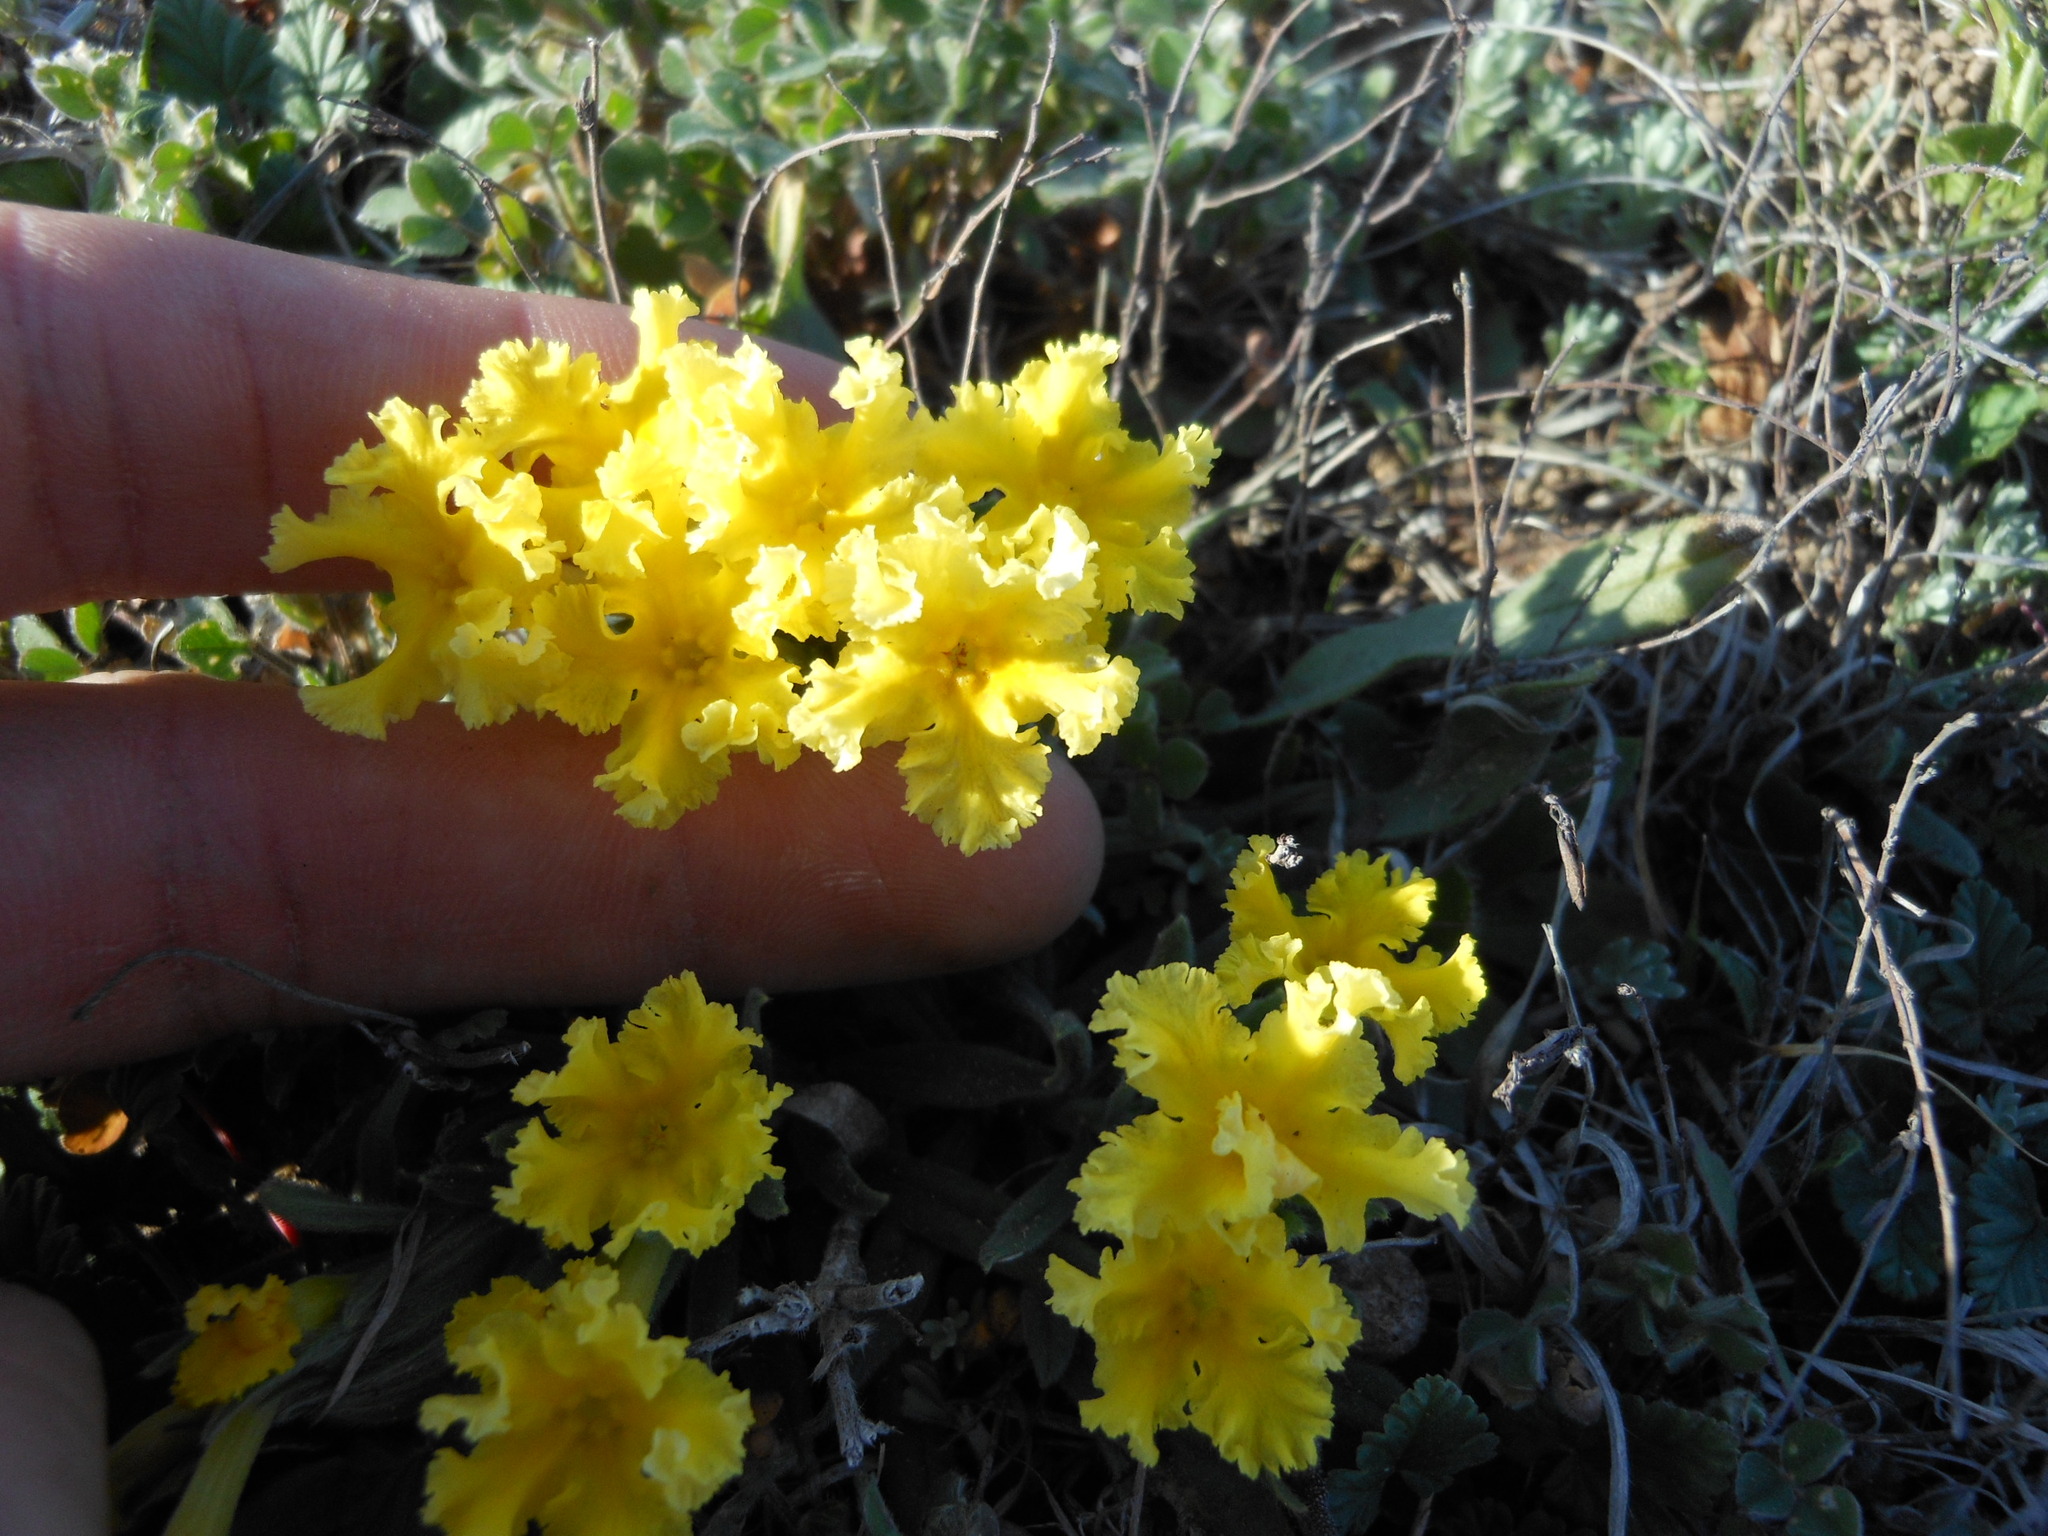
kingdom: Plantae
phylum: Tracheophyta
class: Magnoliopsida
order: Boraginales
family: Boraginaceae
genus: Lithospermum
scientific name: Lithospermum incisum
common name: Fringed gromwell
